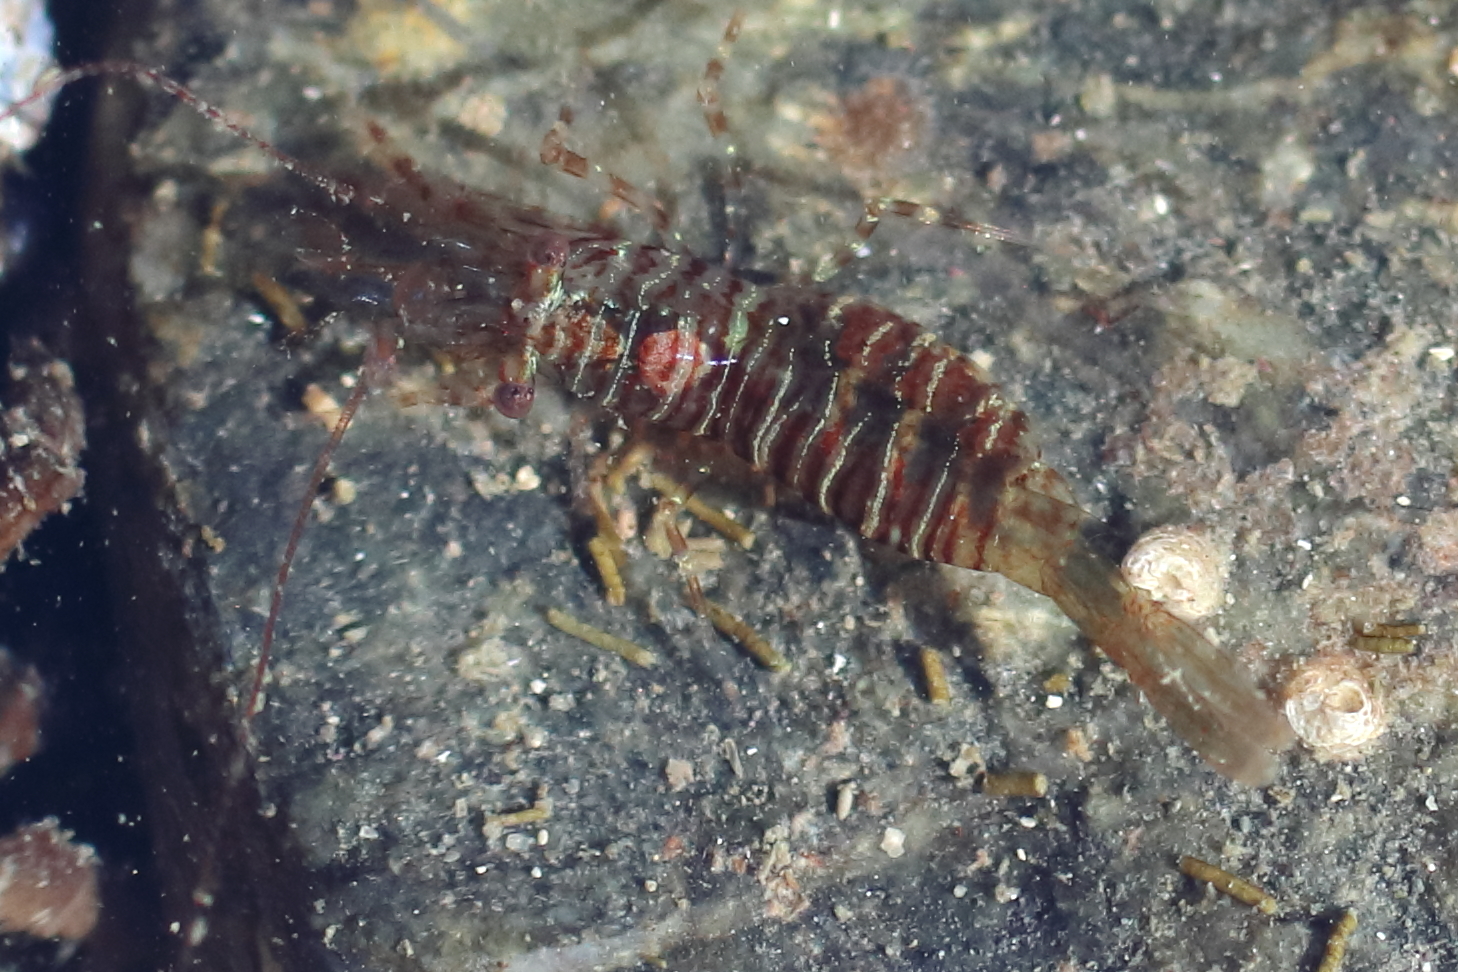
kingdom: Animalia
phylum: Arthropoda
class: Malacostraca
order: Decapoda
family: Thoridae
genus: Heptacarpus
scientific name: Heptacarpus pugettensis
